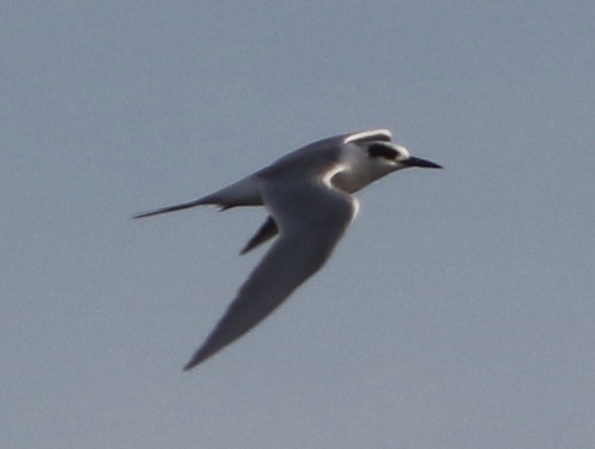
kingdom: Animalia
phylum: Chordata
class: Aves
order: Charadriiformes
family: Laridae
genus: Sterna
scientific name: Sterna forsteri
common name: Forster's tern
